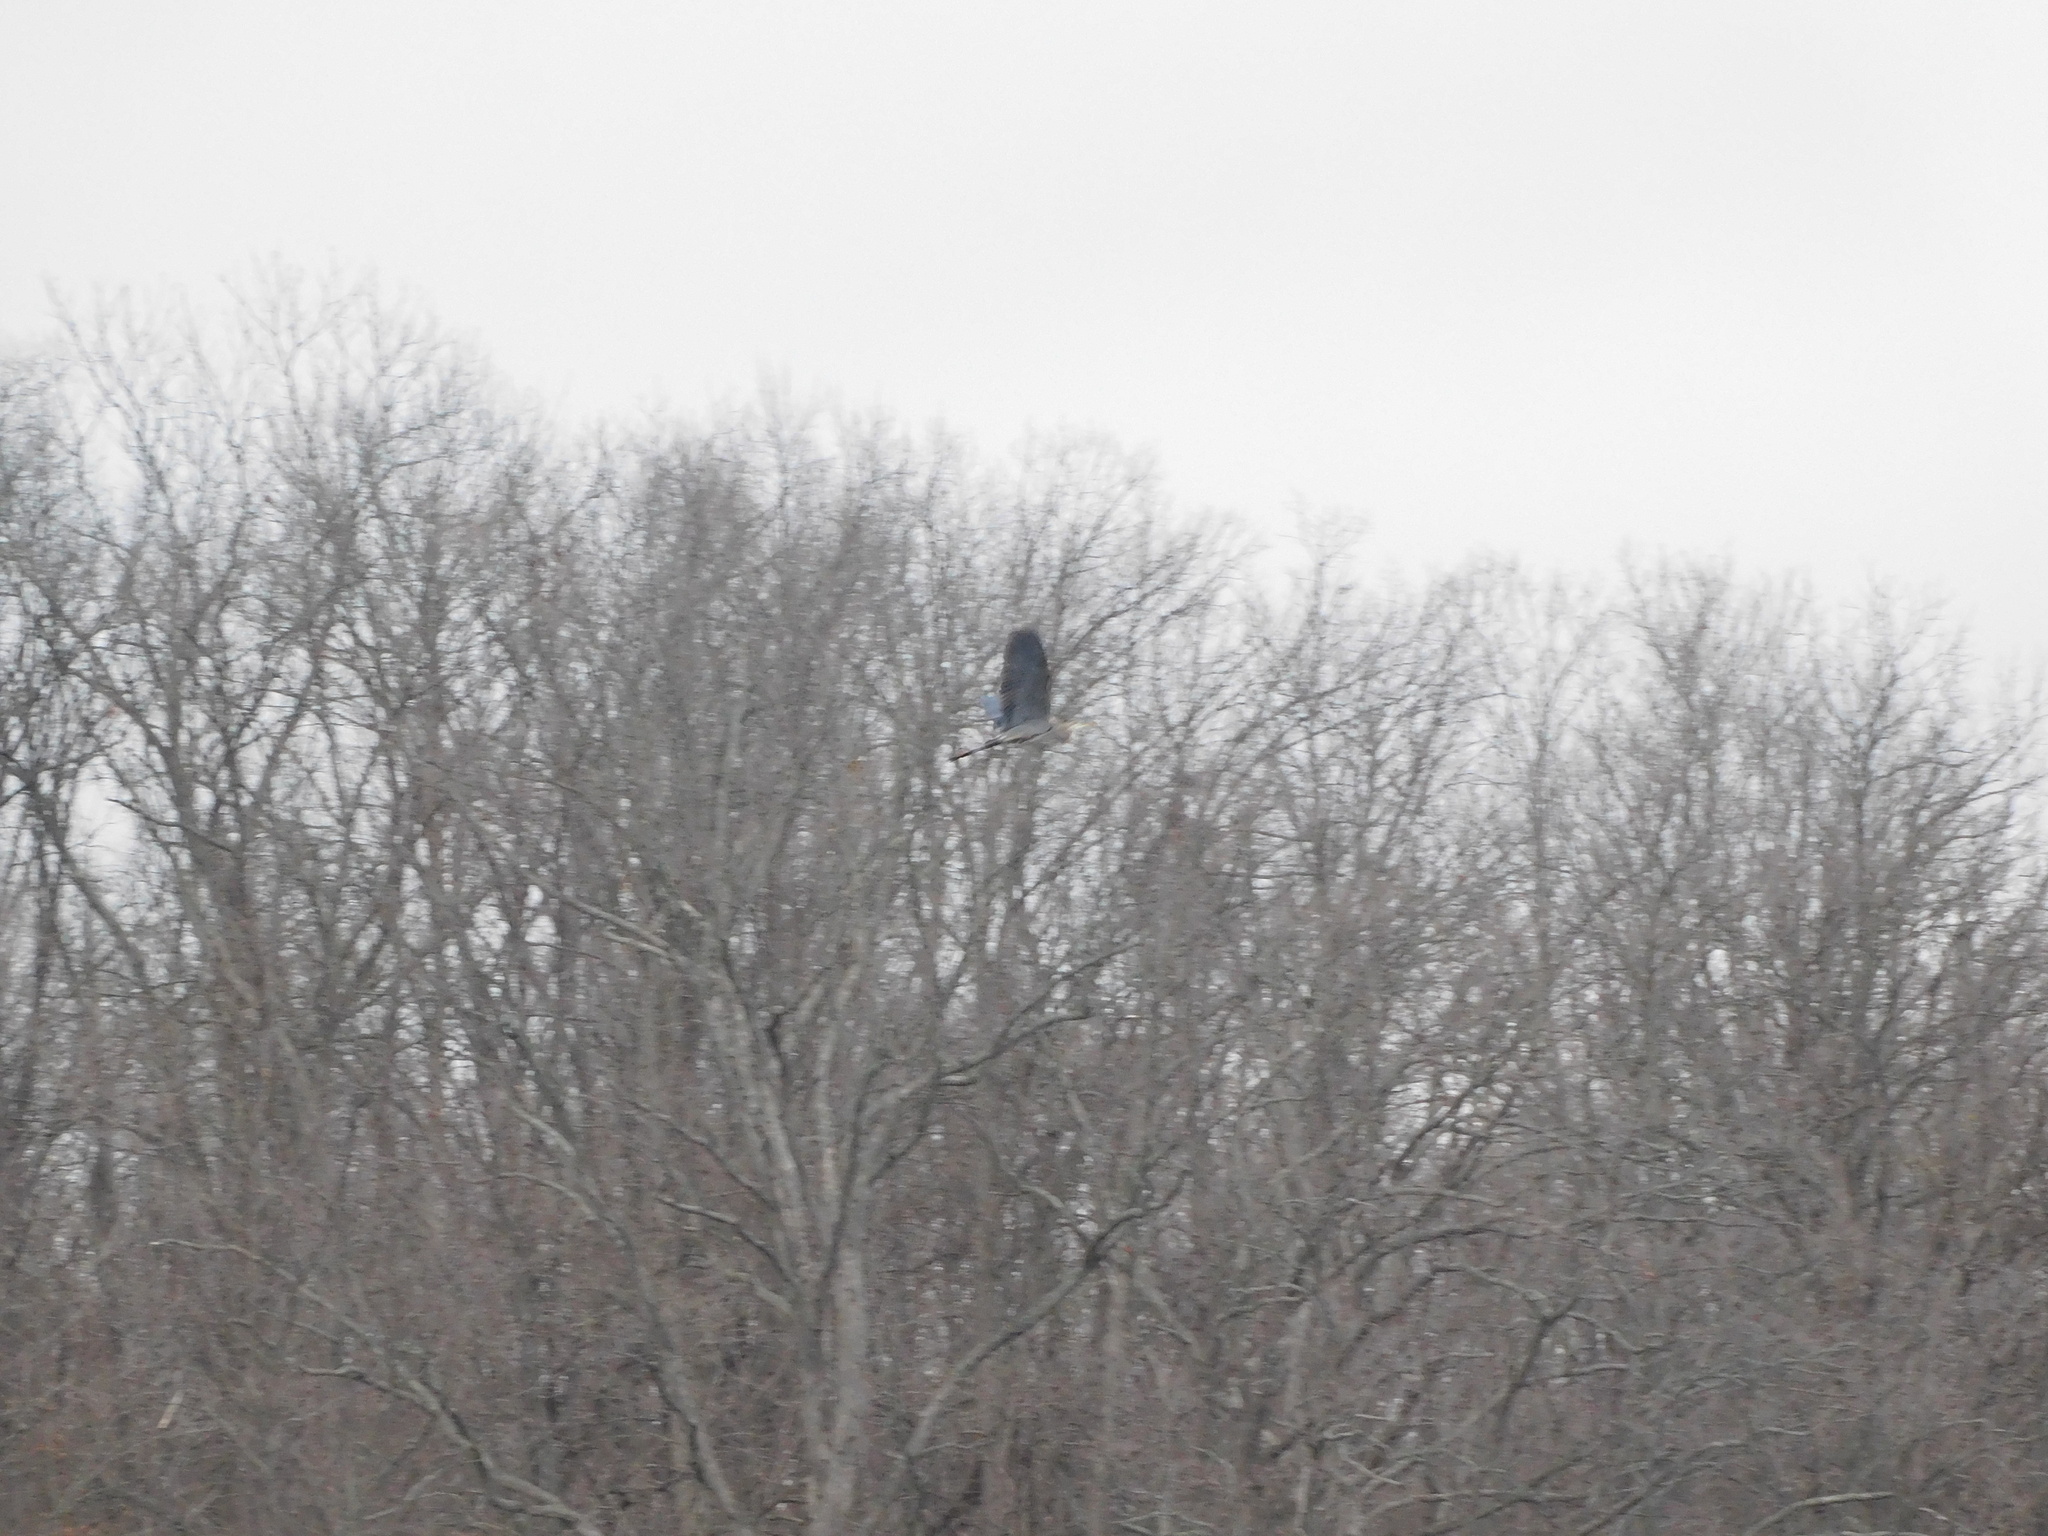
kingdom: Animalia
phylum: Chordata
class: Aves
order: Pelecaniformes
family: Ardeidae
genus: Ardea
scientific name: Ardea herodias
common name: Great blue heron
